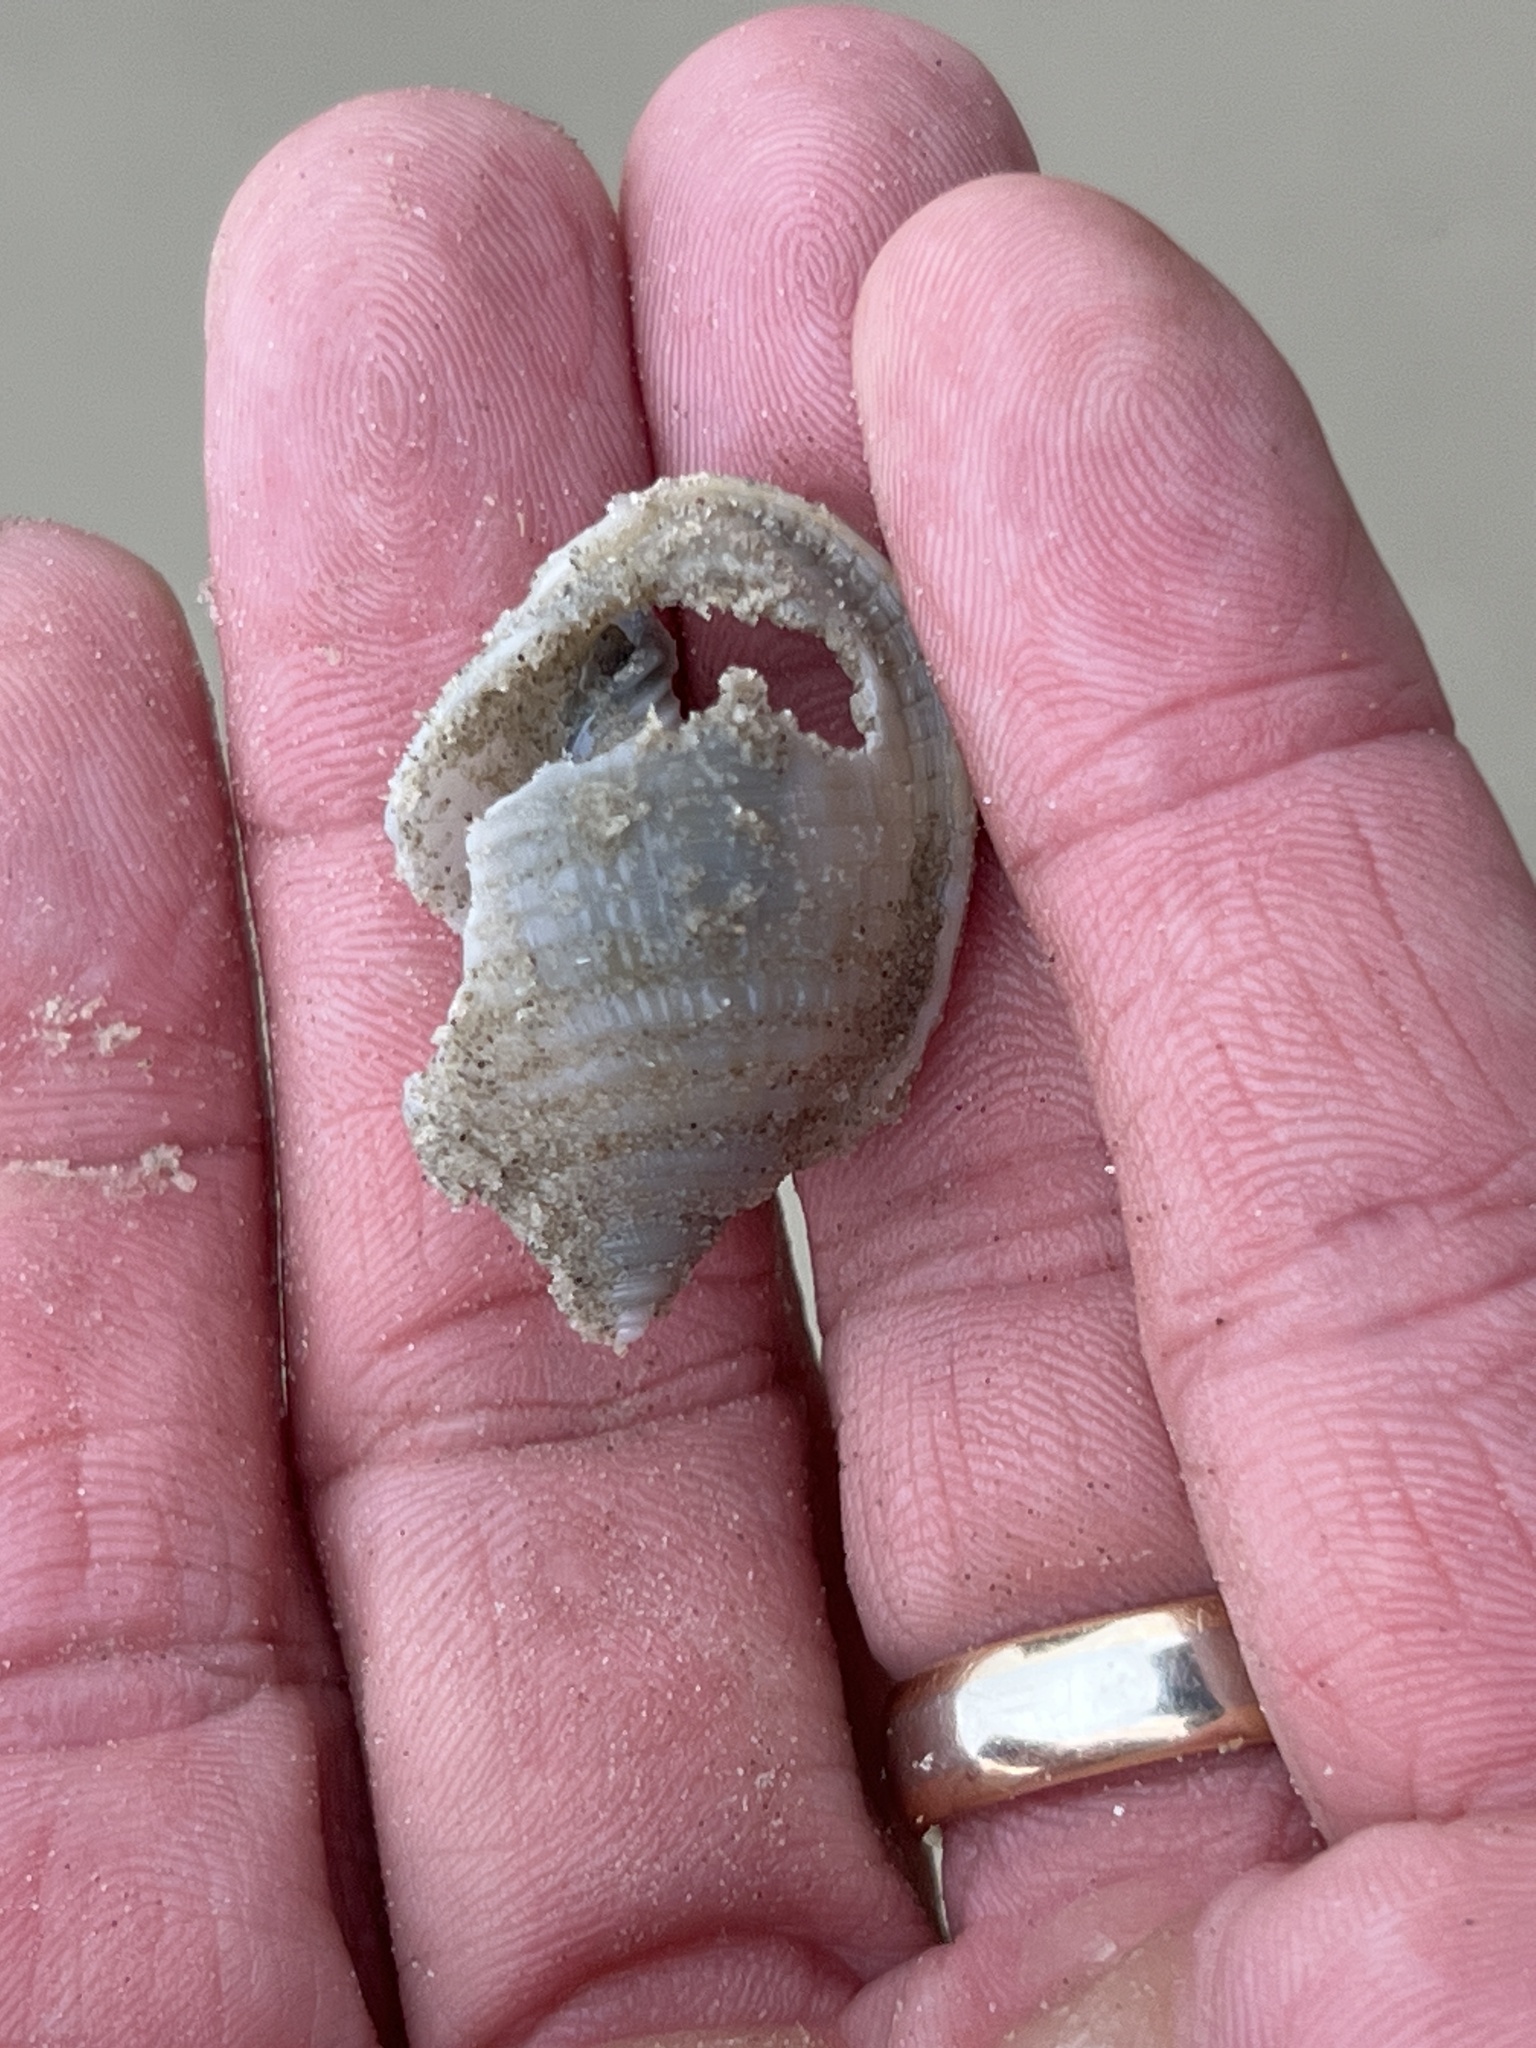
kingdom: Animalia
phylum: Mollusca
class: Gastropoda
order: Littorinimorpha
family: Cassidae
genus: Semicassis
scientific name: Semicassis granulata
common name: Scotch bonnet
